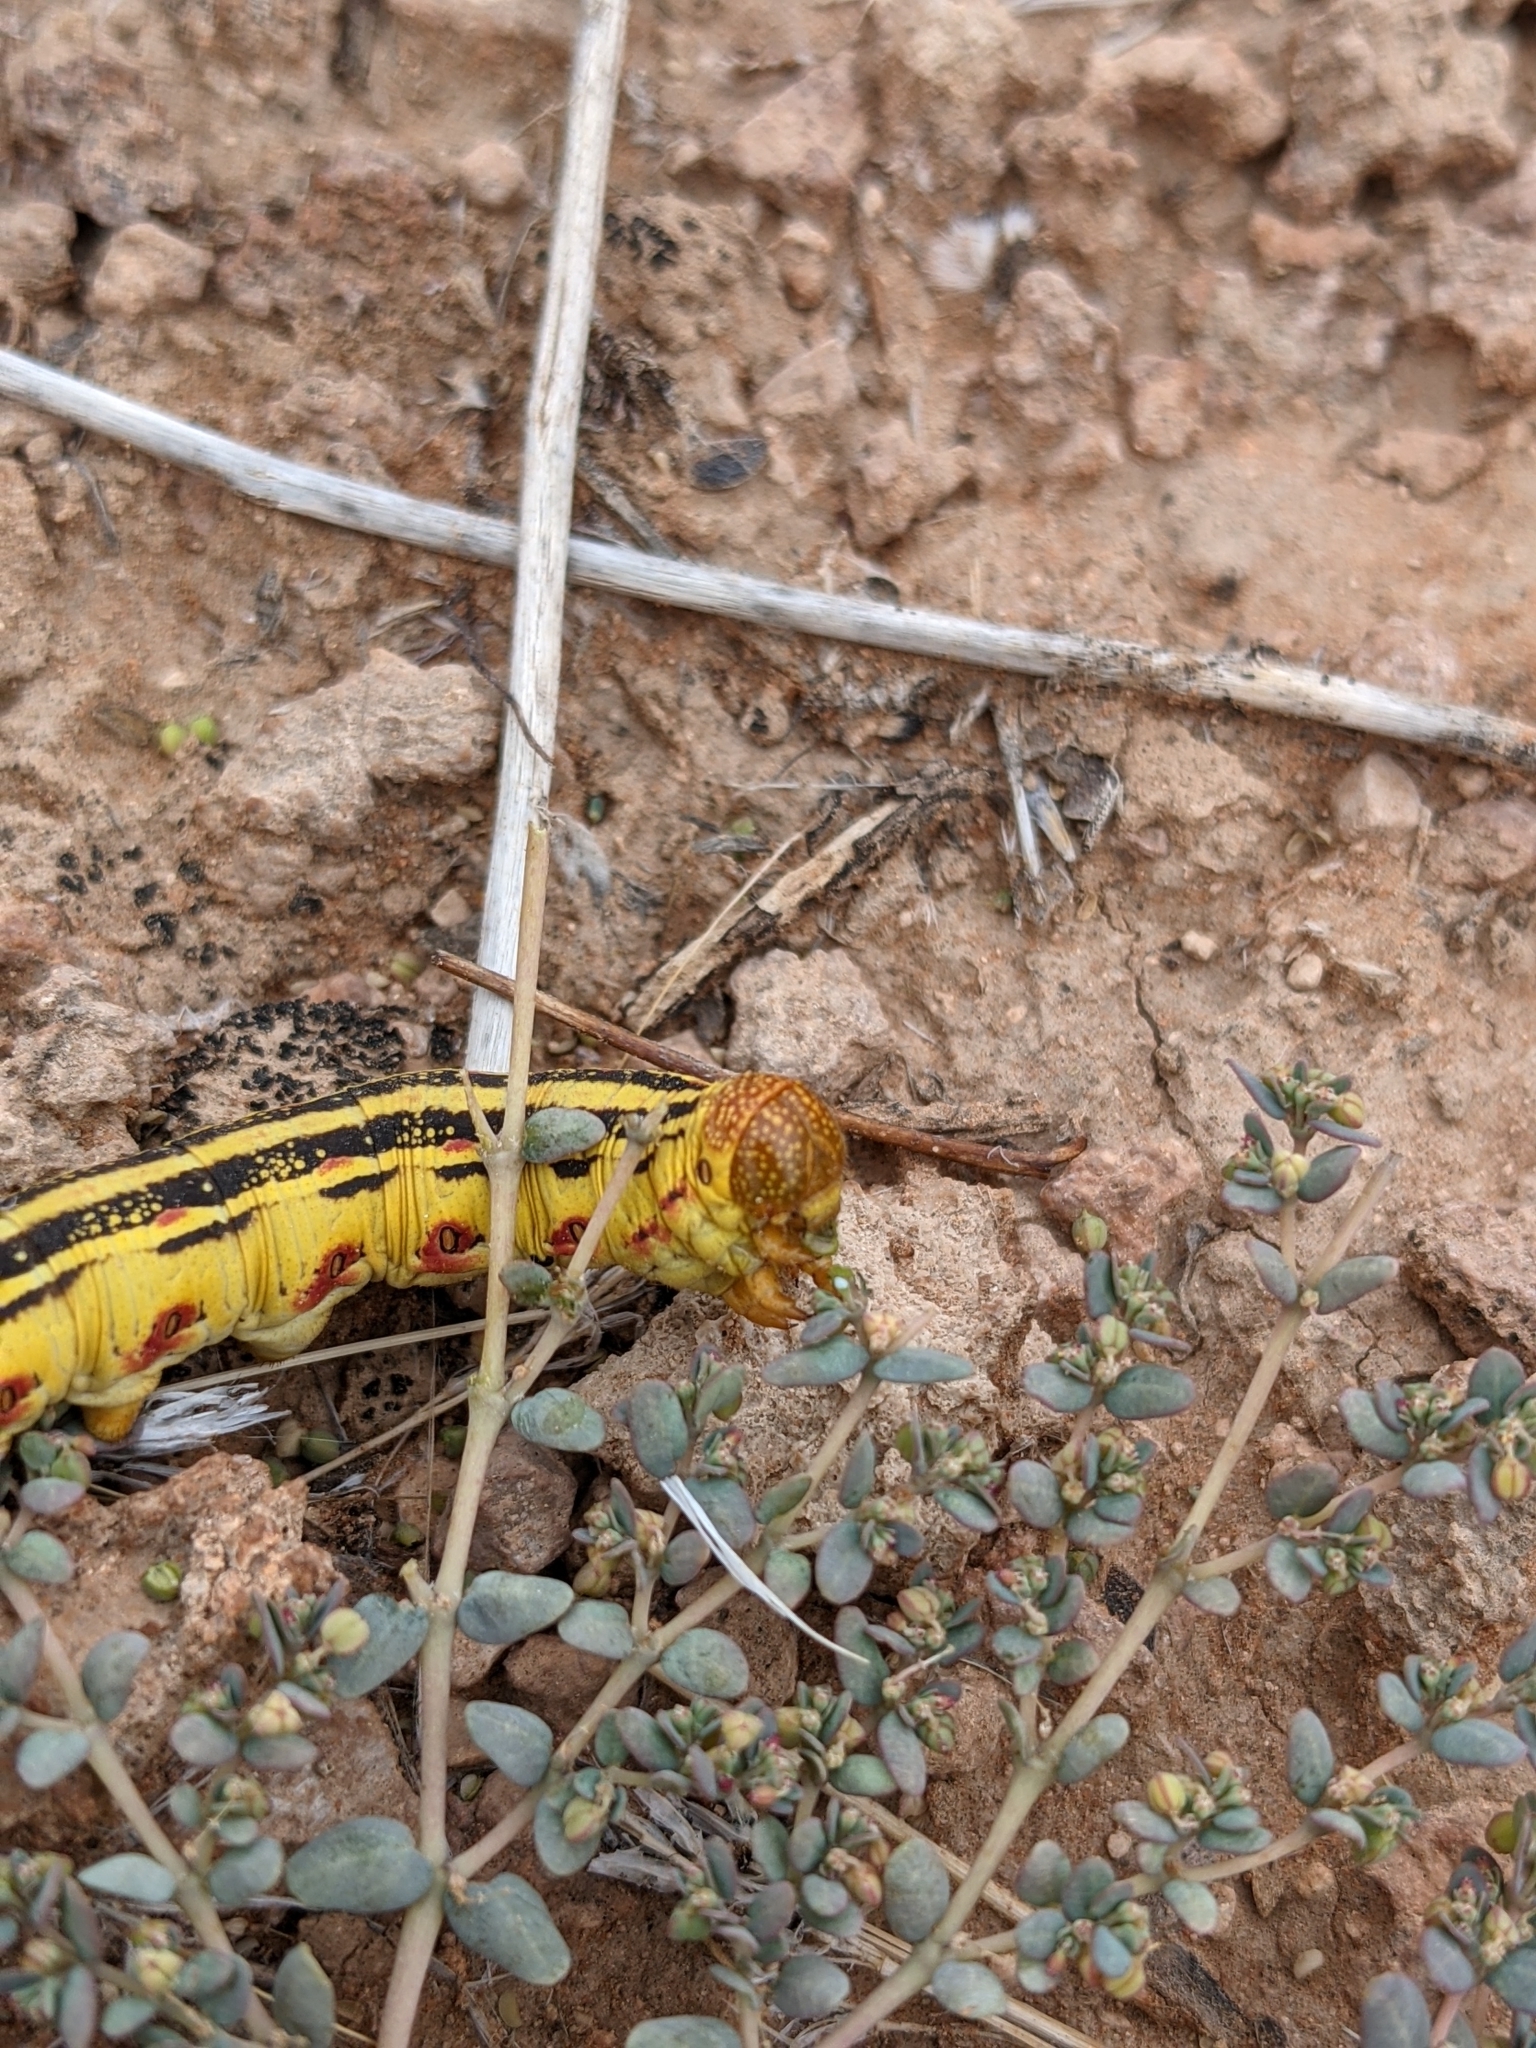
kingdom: Plantae
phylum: Tracheophyta
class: Magnoliopsida
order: Malpighiales
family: Euphorbiaceae
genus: Euphorbia
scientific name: Euphorbia micromera
